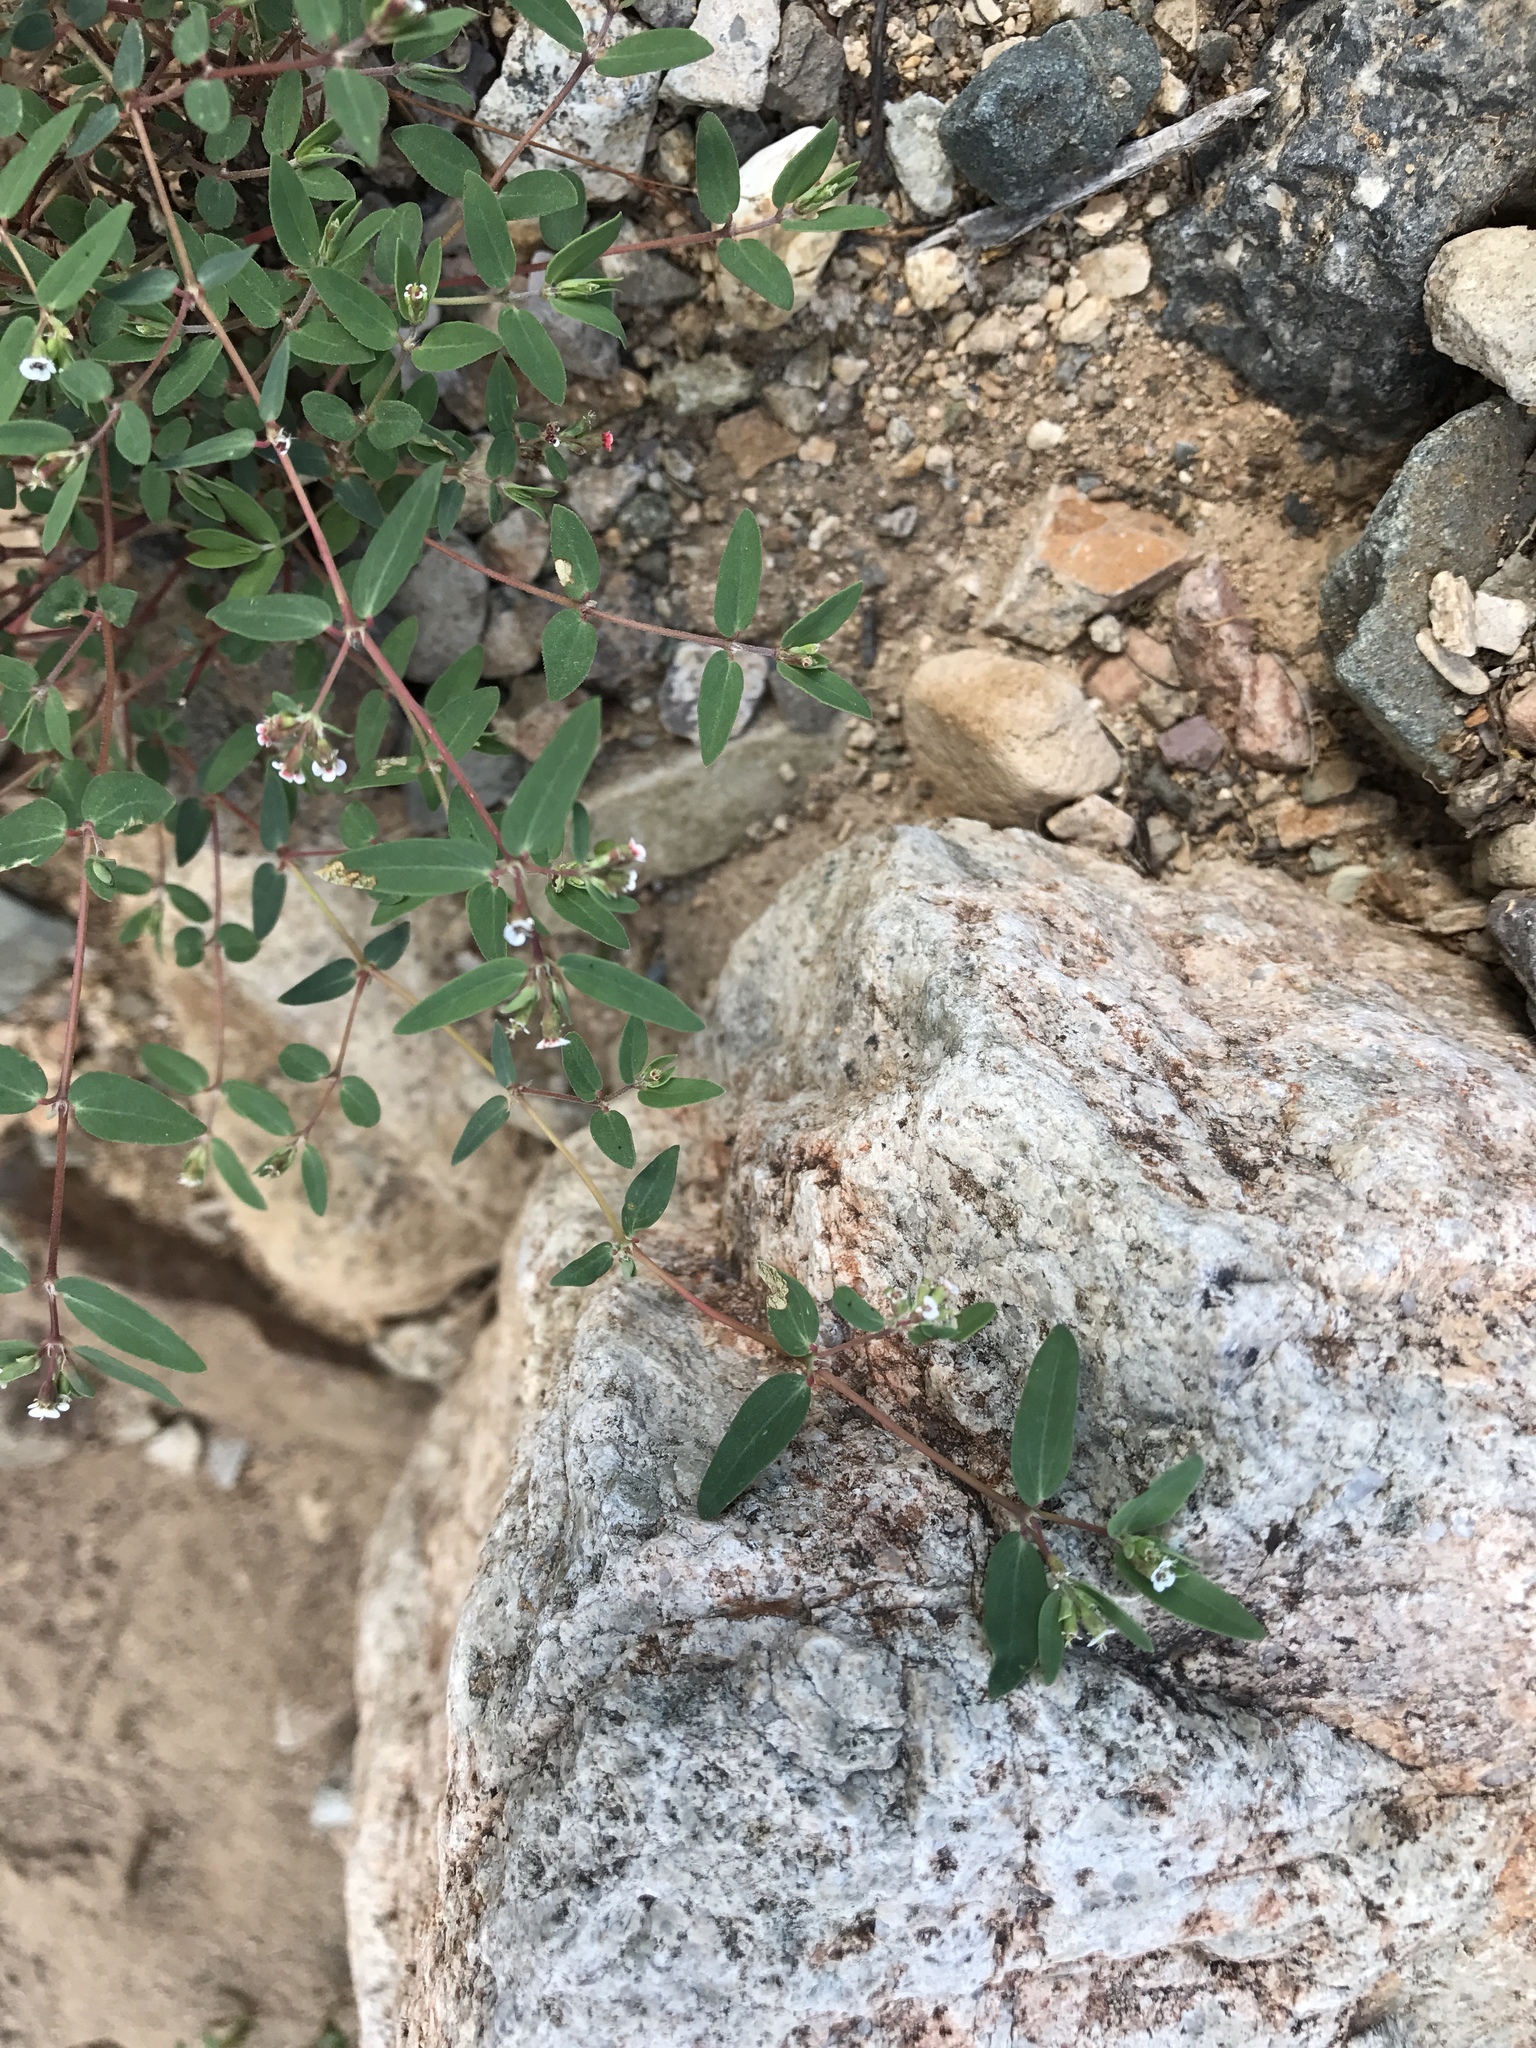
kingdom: Plantae
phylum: Tracheophyta
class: Magnoliopsida
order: Malpighiales
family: Euphorbiaceae
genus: Euphorbia
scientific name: Euphorbia capitellata
